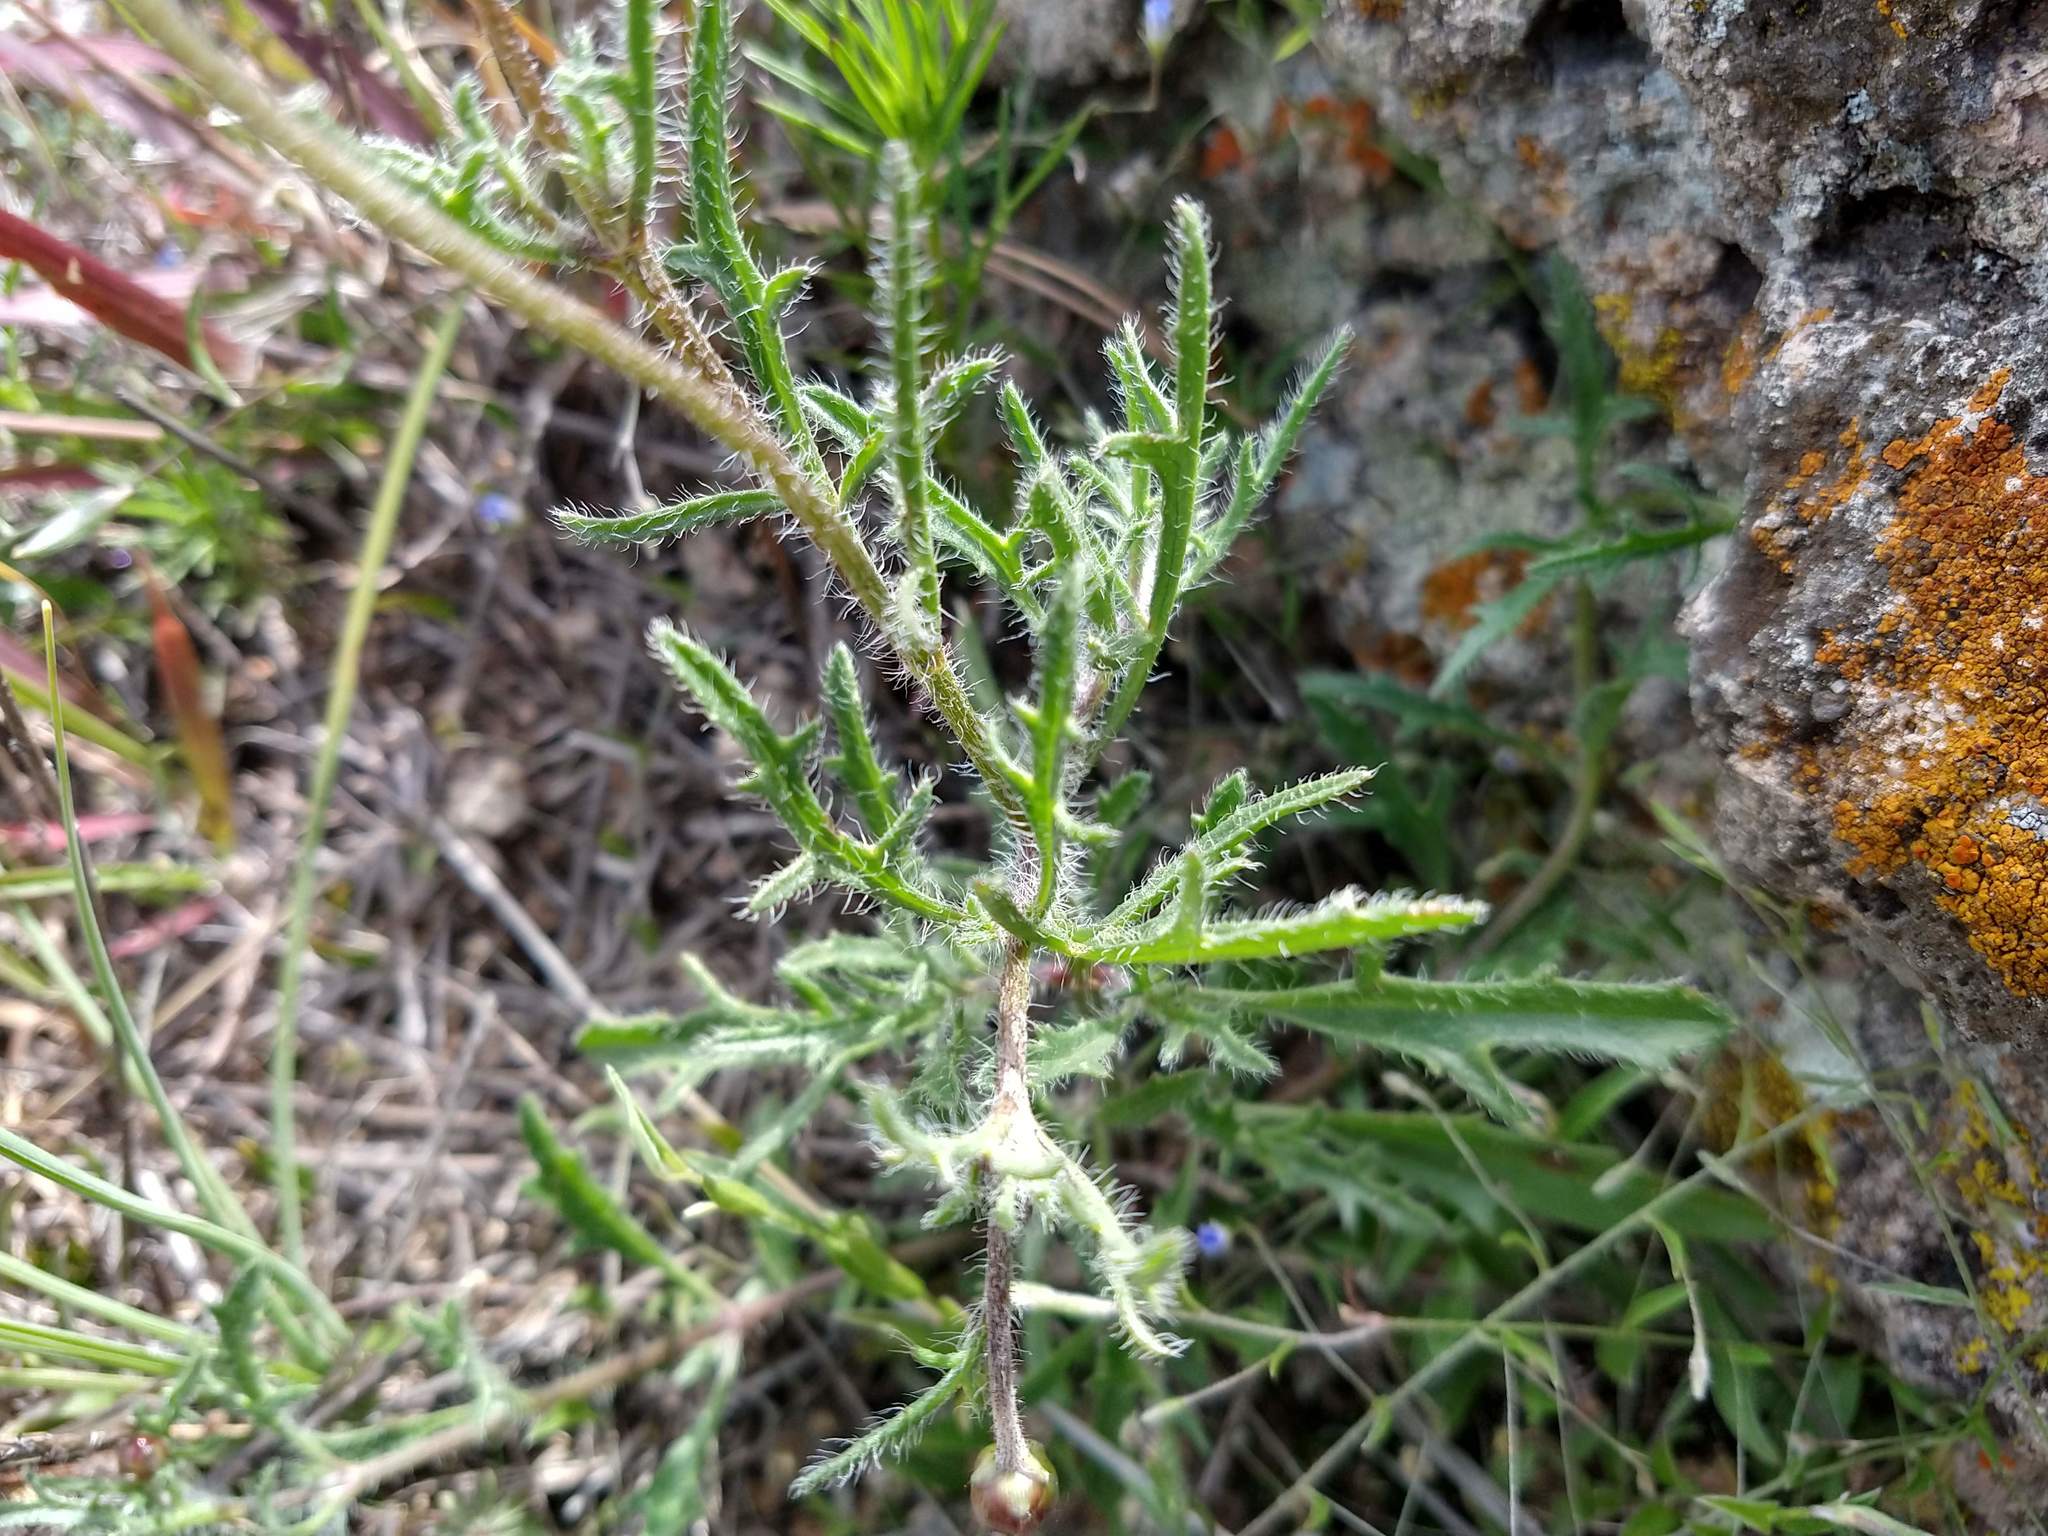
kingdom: Plantae
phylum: Tracheophyta
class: Magnoliopsida
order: Asterales
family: Asteraceae
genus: Tridax
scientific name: Tridax balbisioides
